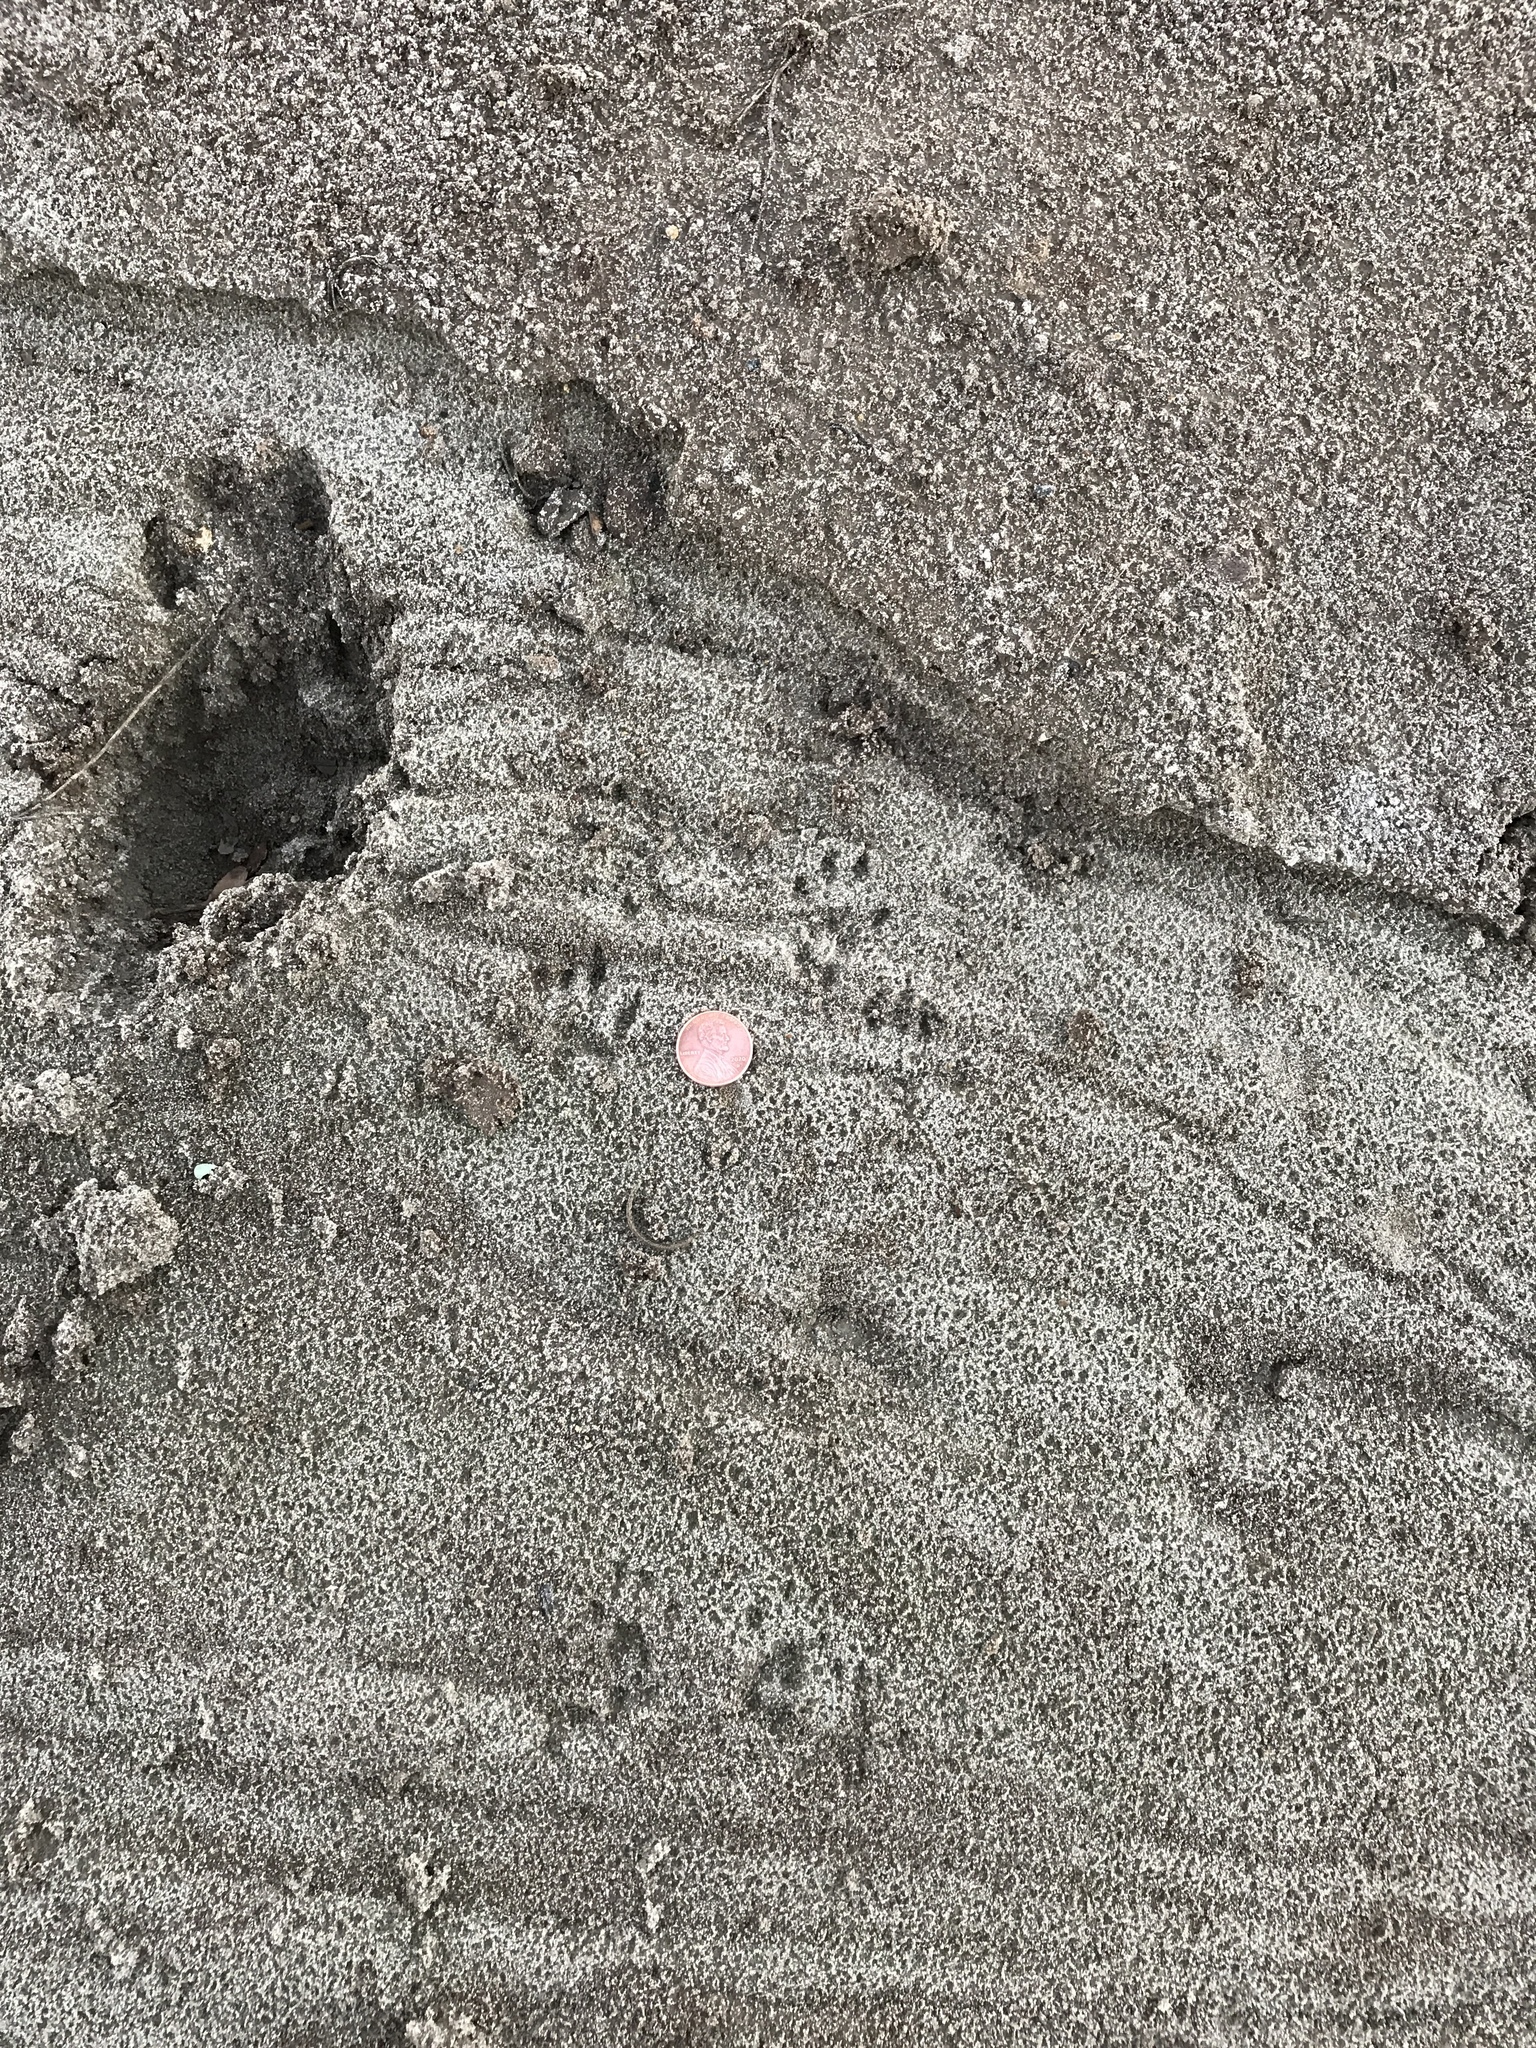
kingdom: Animalia
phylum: Chordata
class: Mammalia
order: Rodentia
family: Sciuridae
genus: Sciurus
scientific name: Sciurus niger
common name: Fox squirrel
